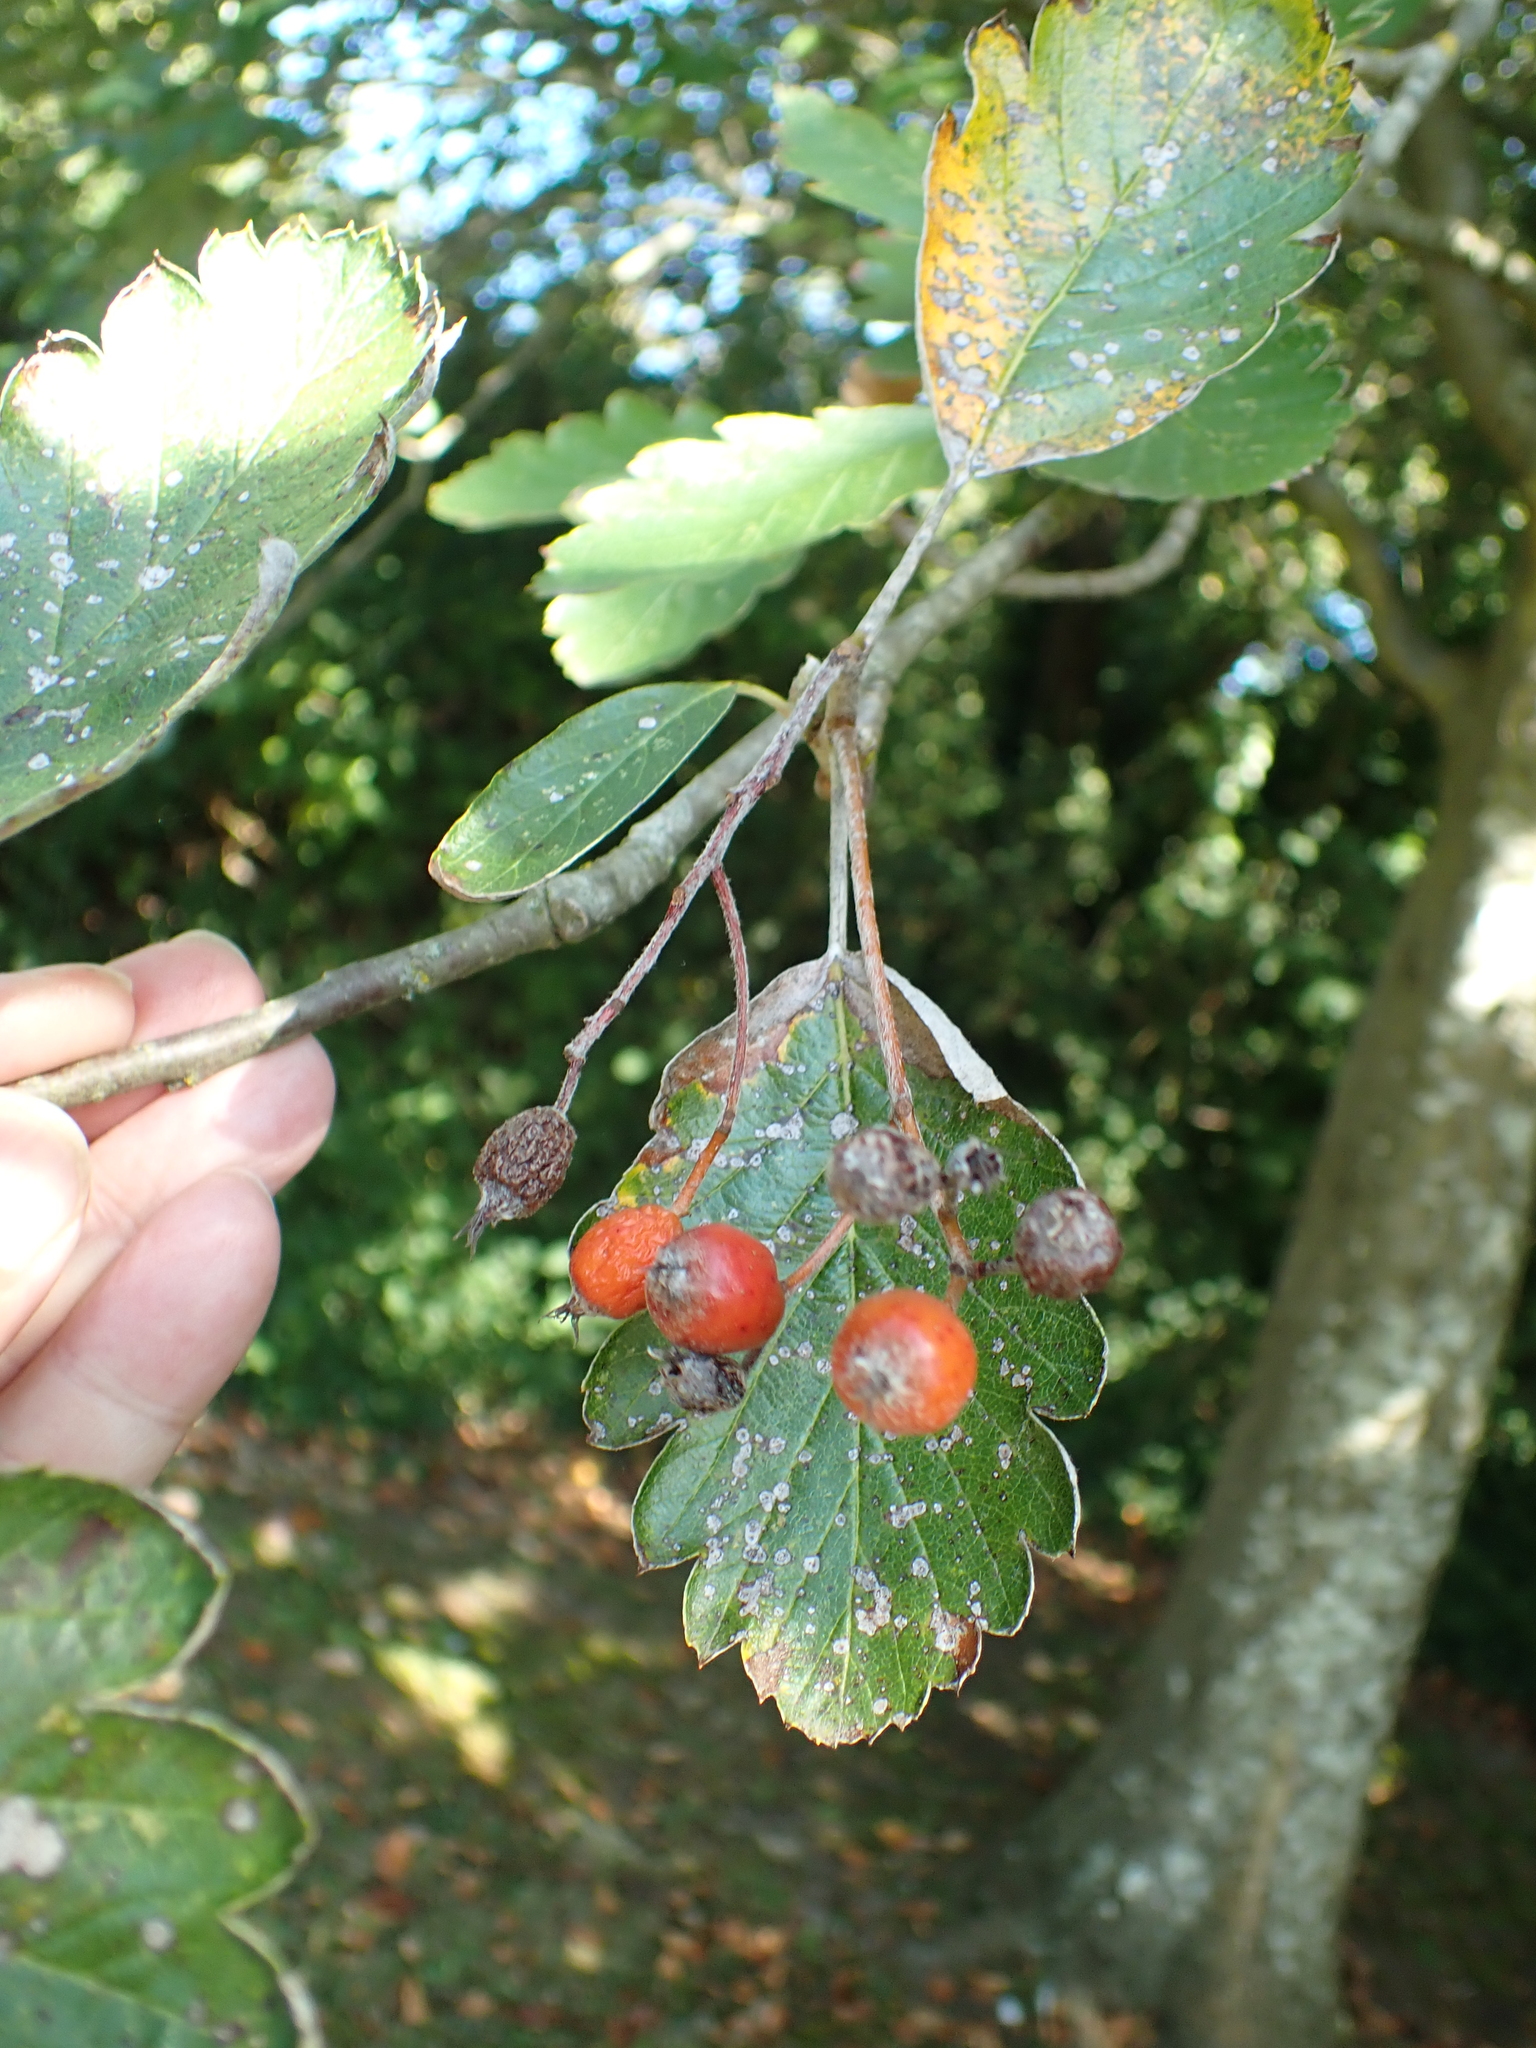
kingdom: Plantae
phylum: Tracheophyta
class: Magnoliopsida
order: Rosales
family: Rosaceae
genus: Scandosorbus
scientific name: Scandosorbus intermedia
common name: Swedish whitebeam
